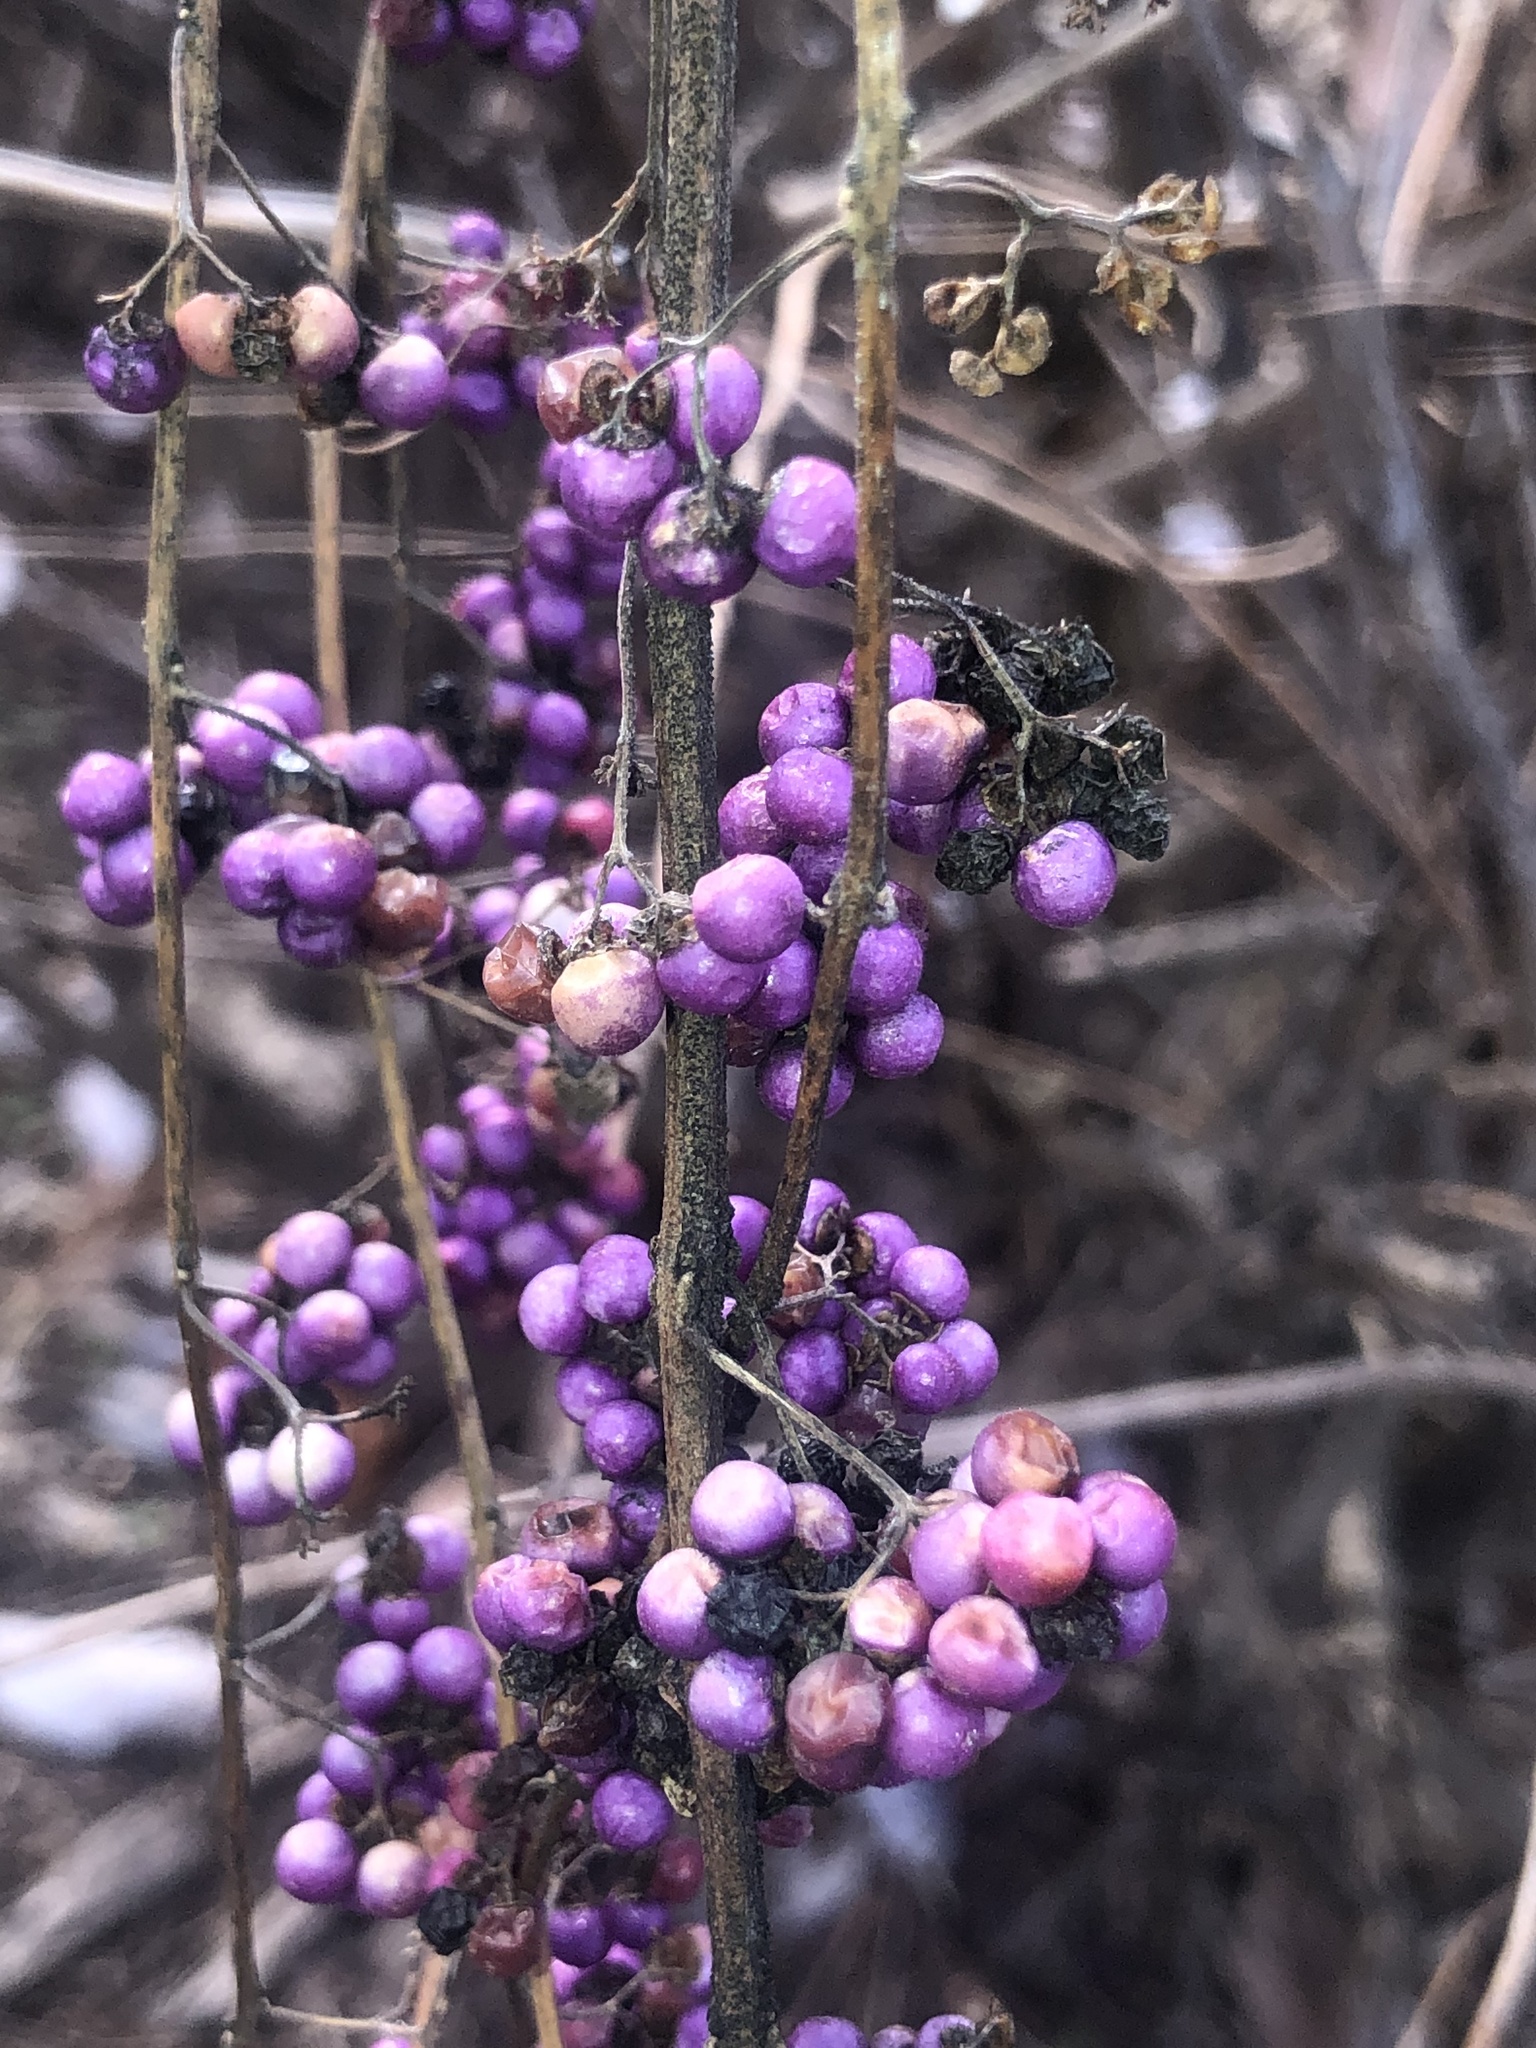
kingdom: Plantae
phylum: Tracheophyta
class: Magnoliopsida
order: Lamiales
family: Lamiaceae
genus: Callicarpa
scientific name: Callicarpa dichotoma
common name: Purple beauty-berry
